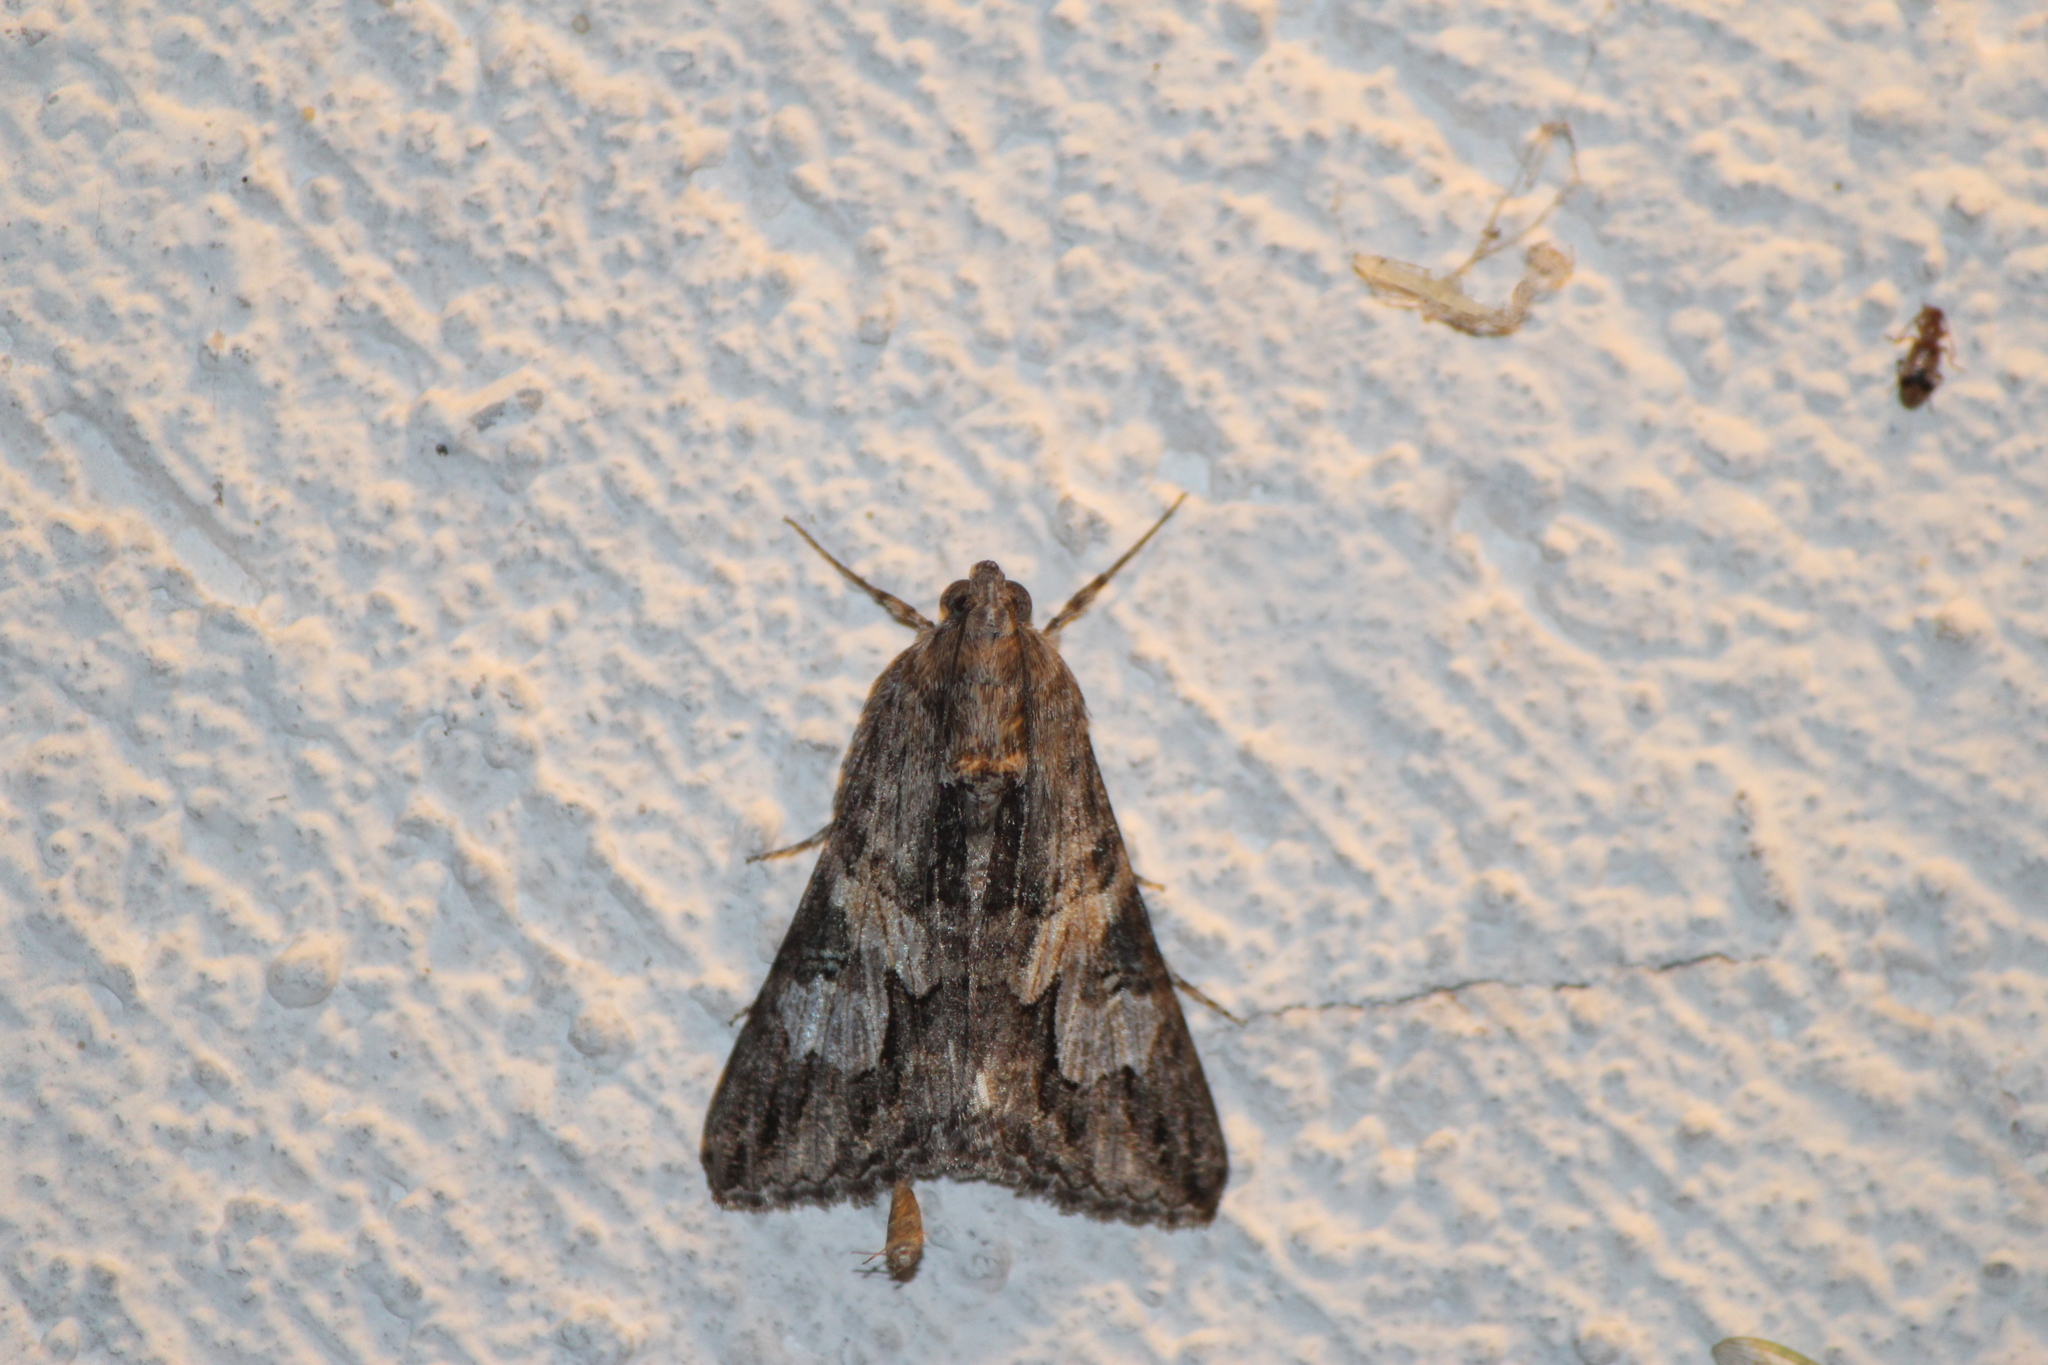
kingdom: Animalia
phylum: Arthropoda
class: Insecta
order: Lepidoptera
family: Erebidae
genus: Melipotis
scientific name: Melipotis jucunda
